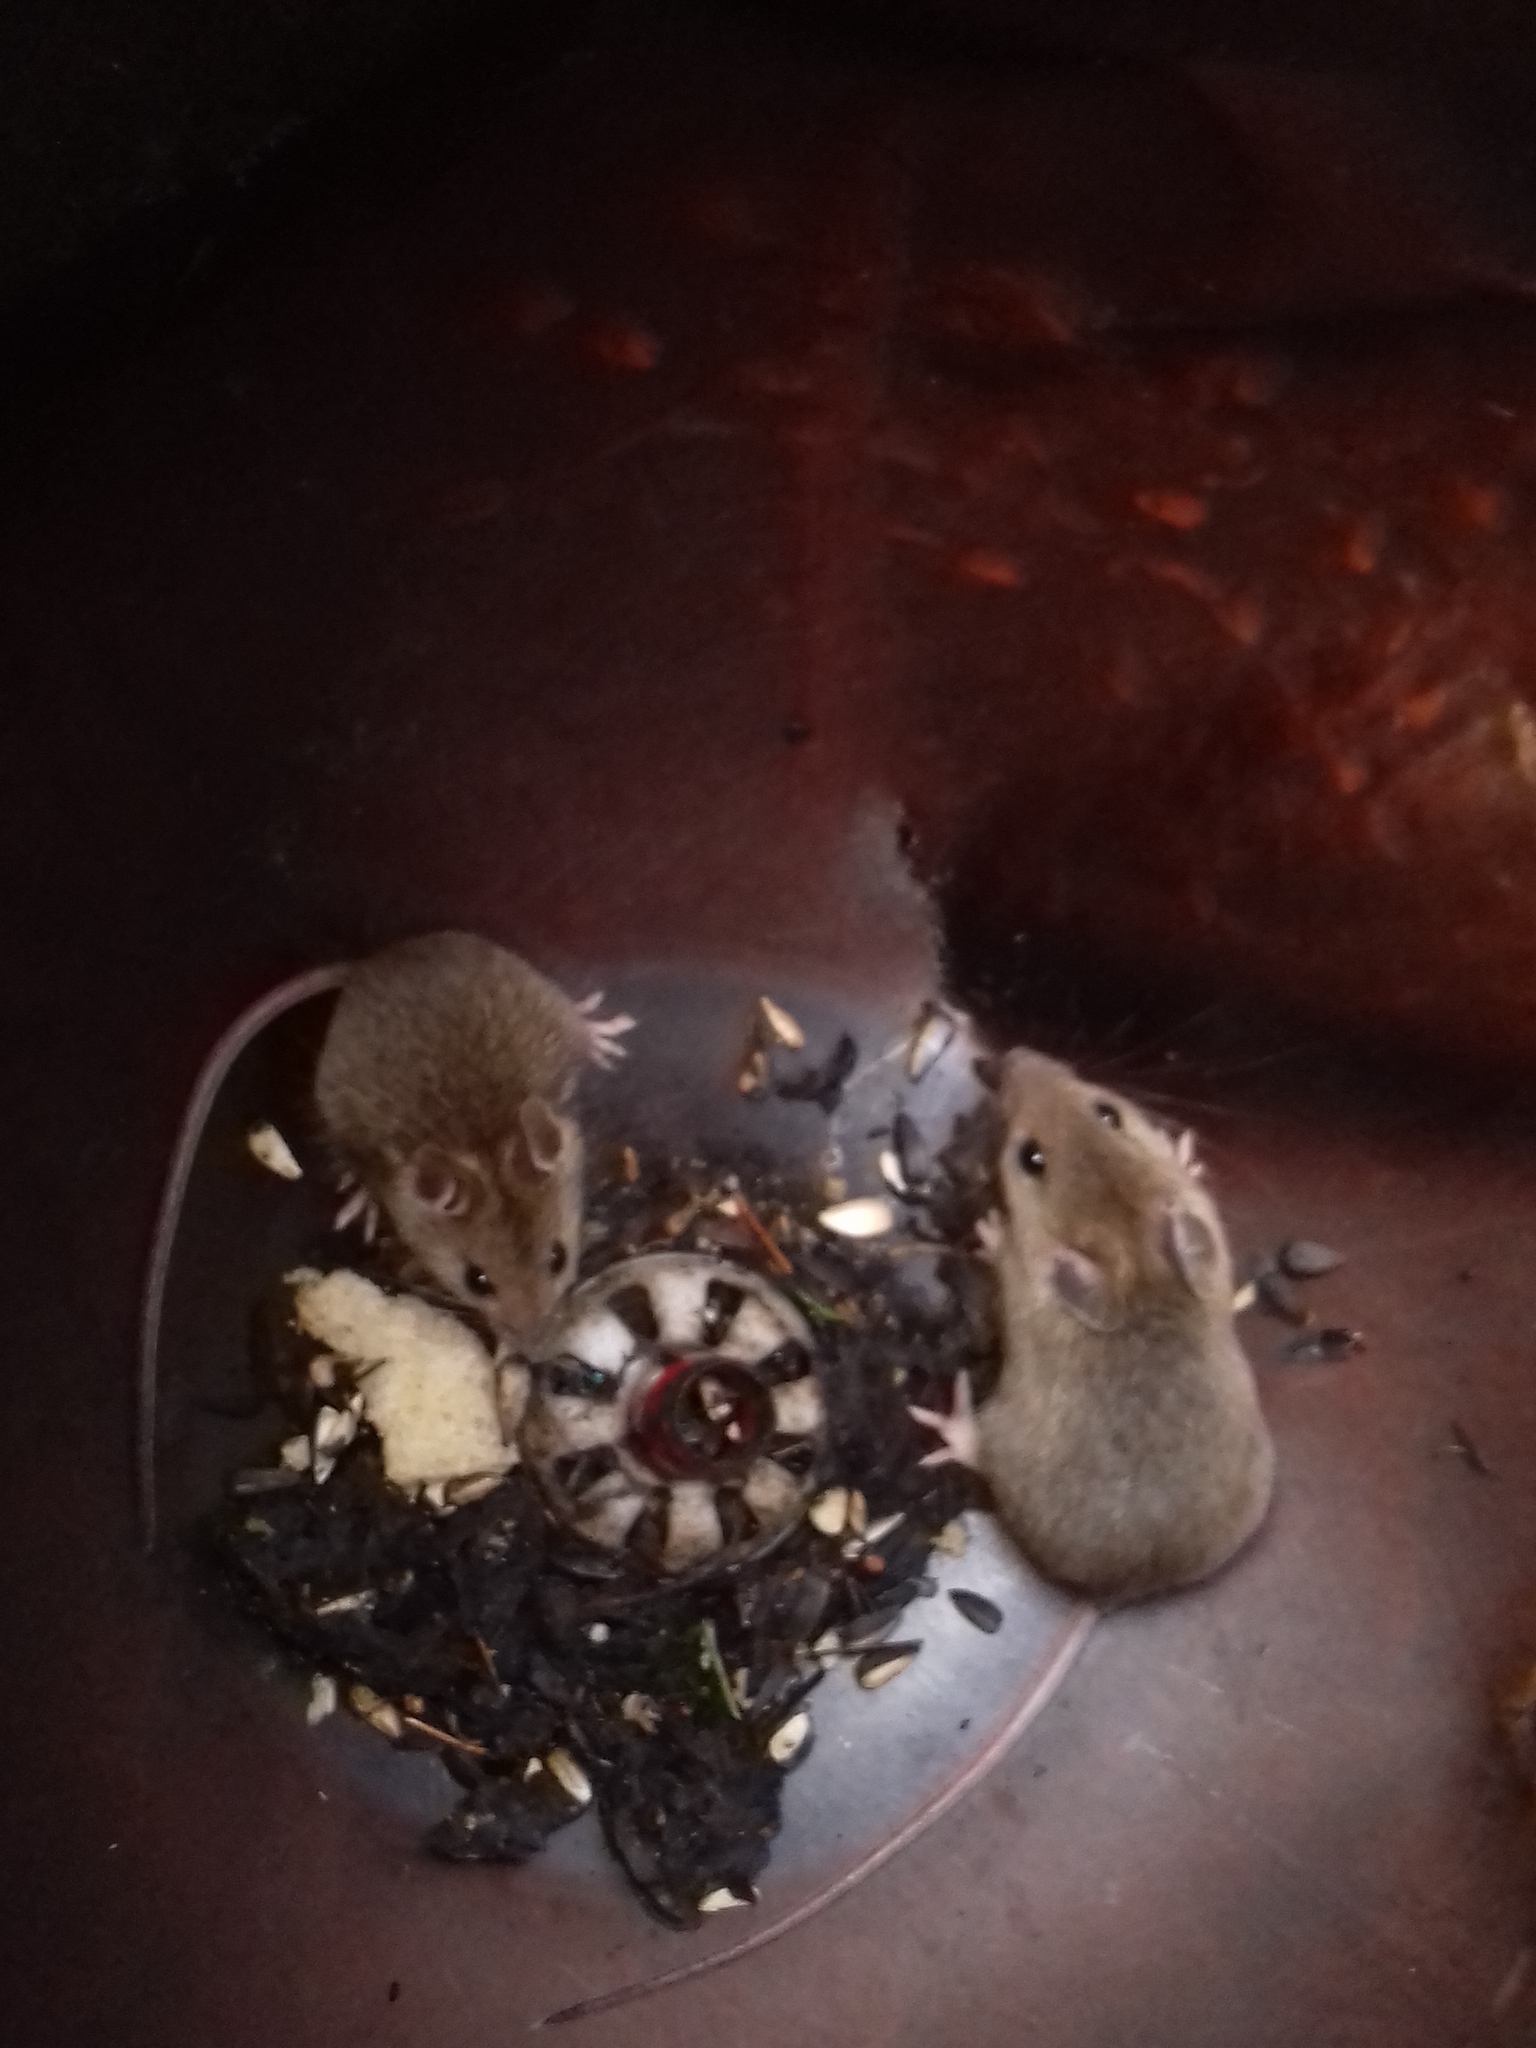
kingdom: Animalia
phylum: Chordata
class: Mammalia
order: Rodentia
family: Muridae
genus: Apodemus
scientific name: Apodemus flavicollis
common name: Yellow-necked field mouse
